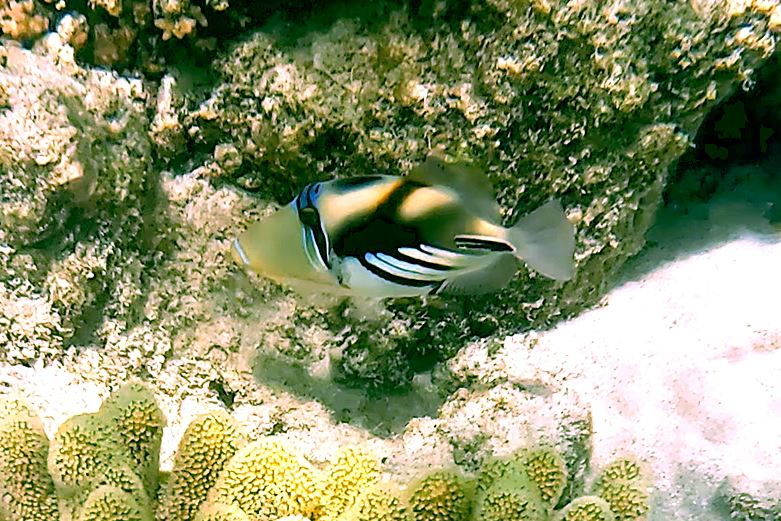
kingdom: Animalia
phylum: Chordata
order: Tetraodontiformes
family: Balistidae
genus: Rhinecanthus
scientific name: Rhinecanthus aculeatus
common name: White-banded triggerfish
